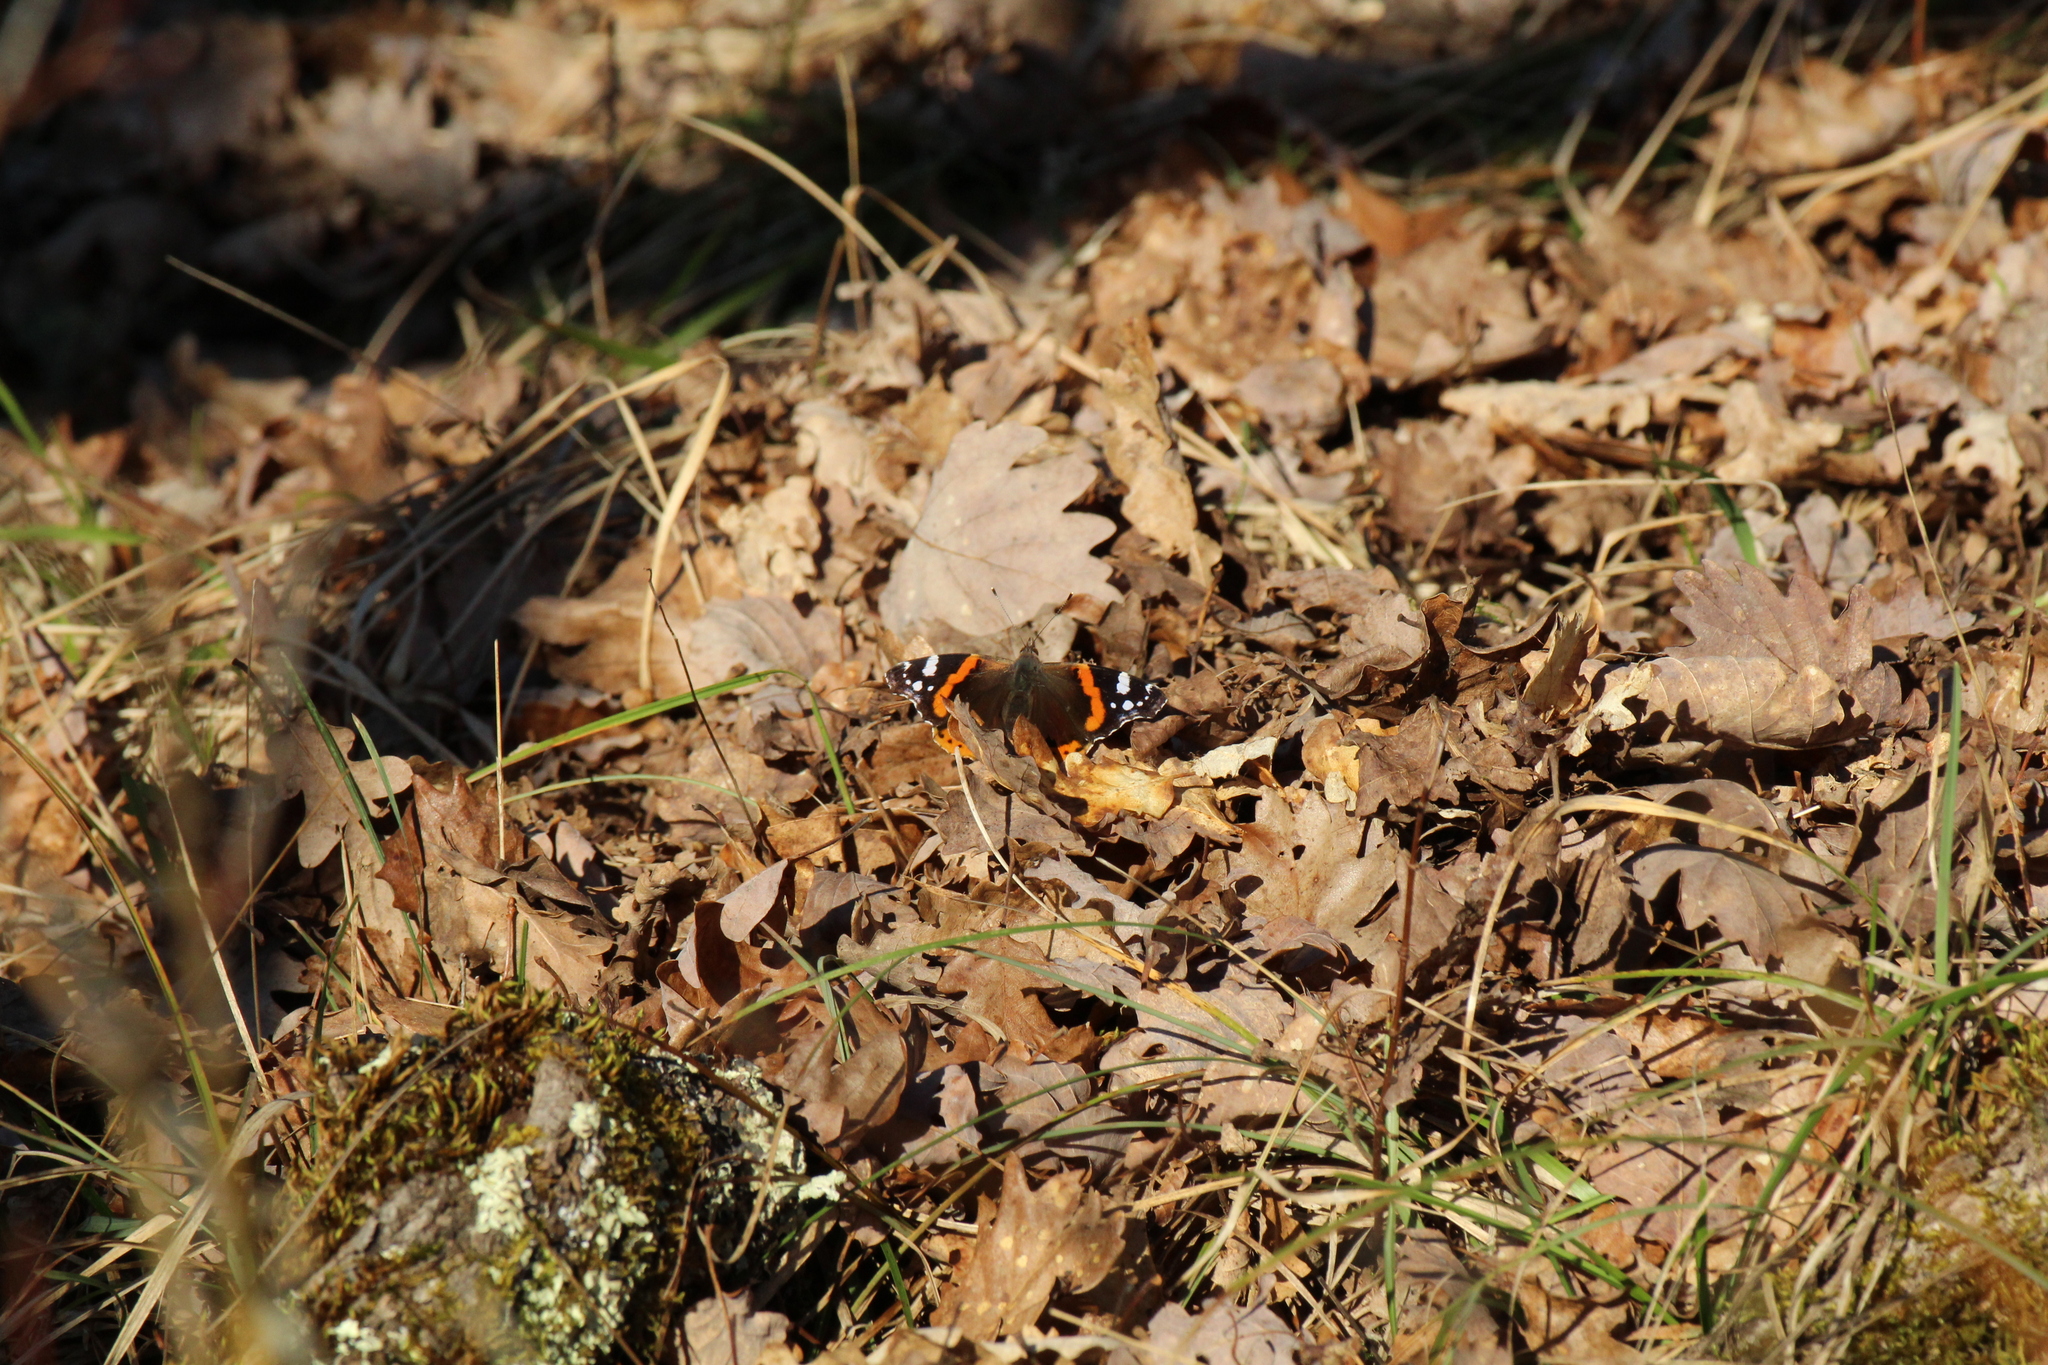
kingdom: Animalia
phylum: Arthropoda
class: Insecta
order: Lepidoptera
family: Nymphalidae
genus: Vanessa
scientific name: Vanessa atalanta
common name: Red admiral
